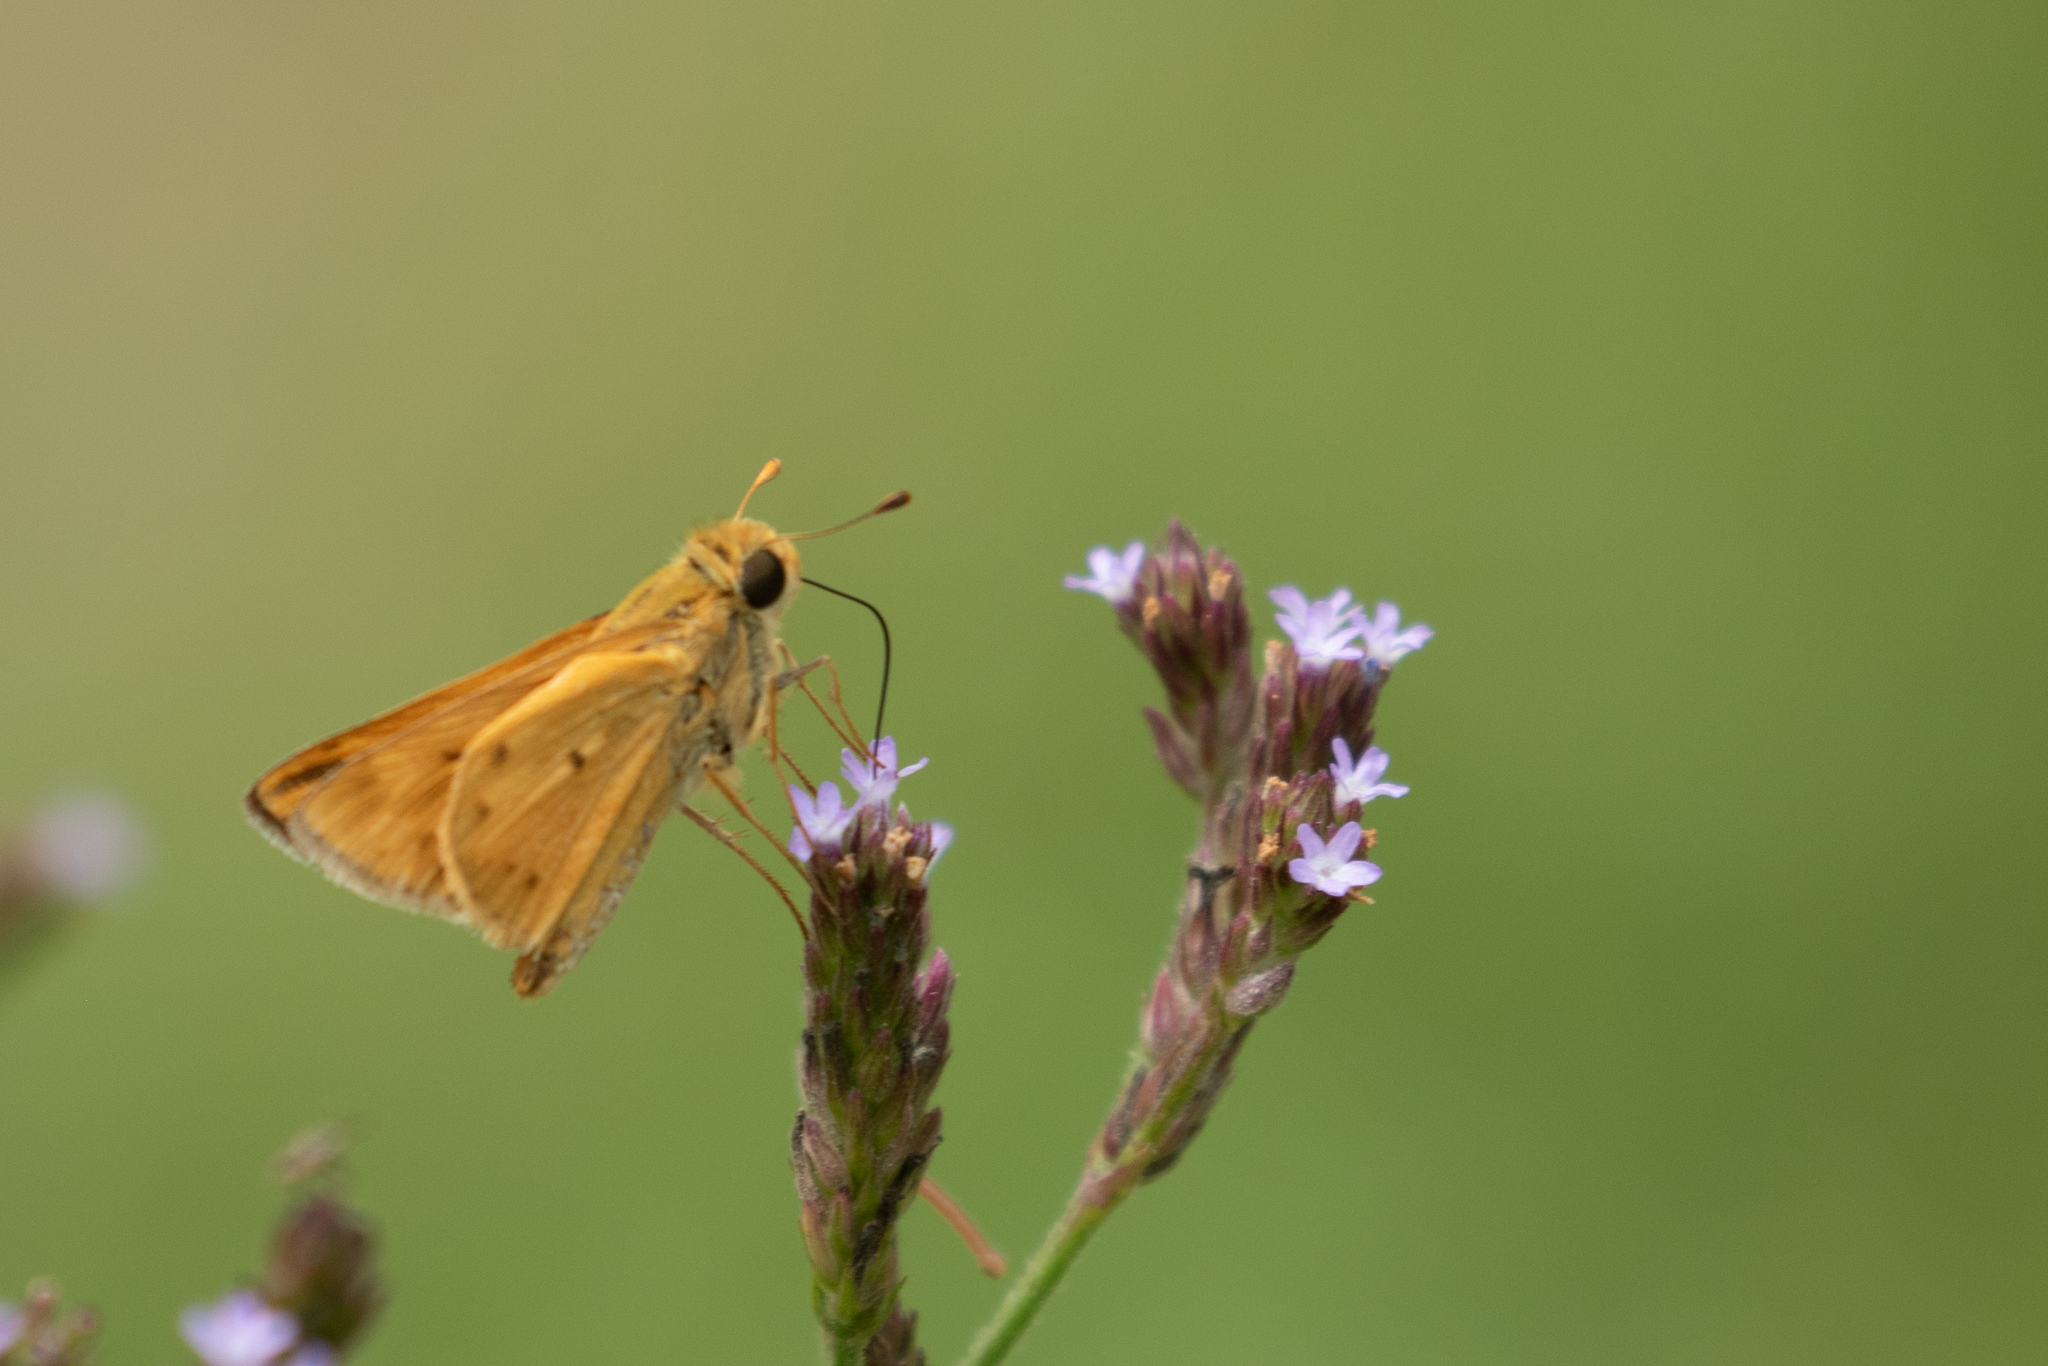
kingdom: Animalia
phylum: Arthropoda
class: Insecta
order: Lepidoptera
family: Hesperiidae
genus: Hylephila
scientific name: Hylephila phyleus
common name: Fiery skipper
